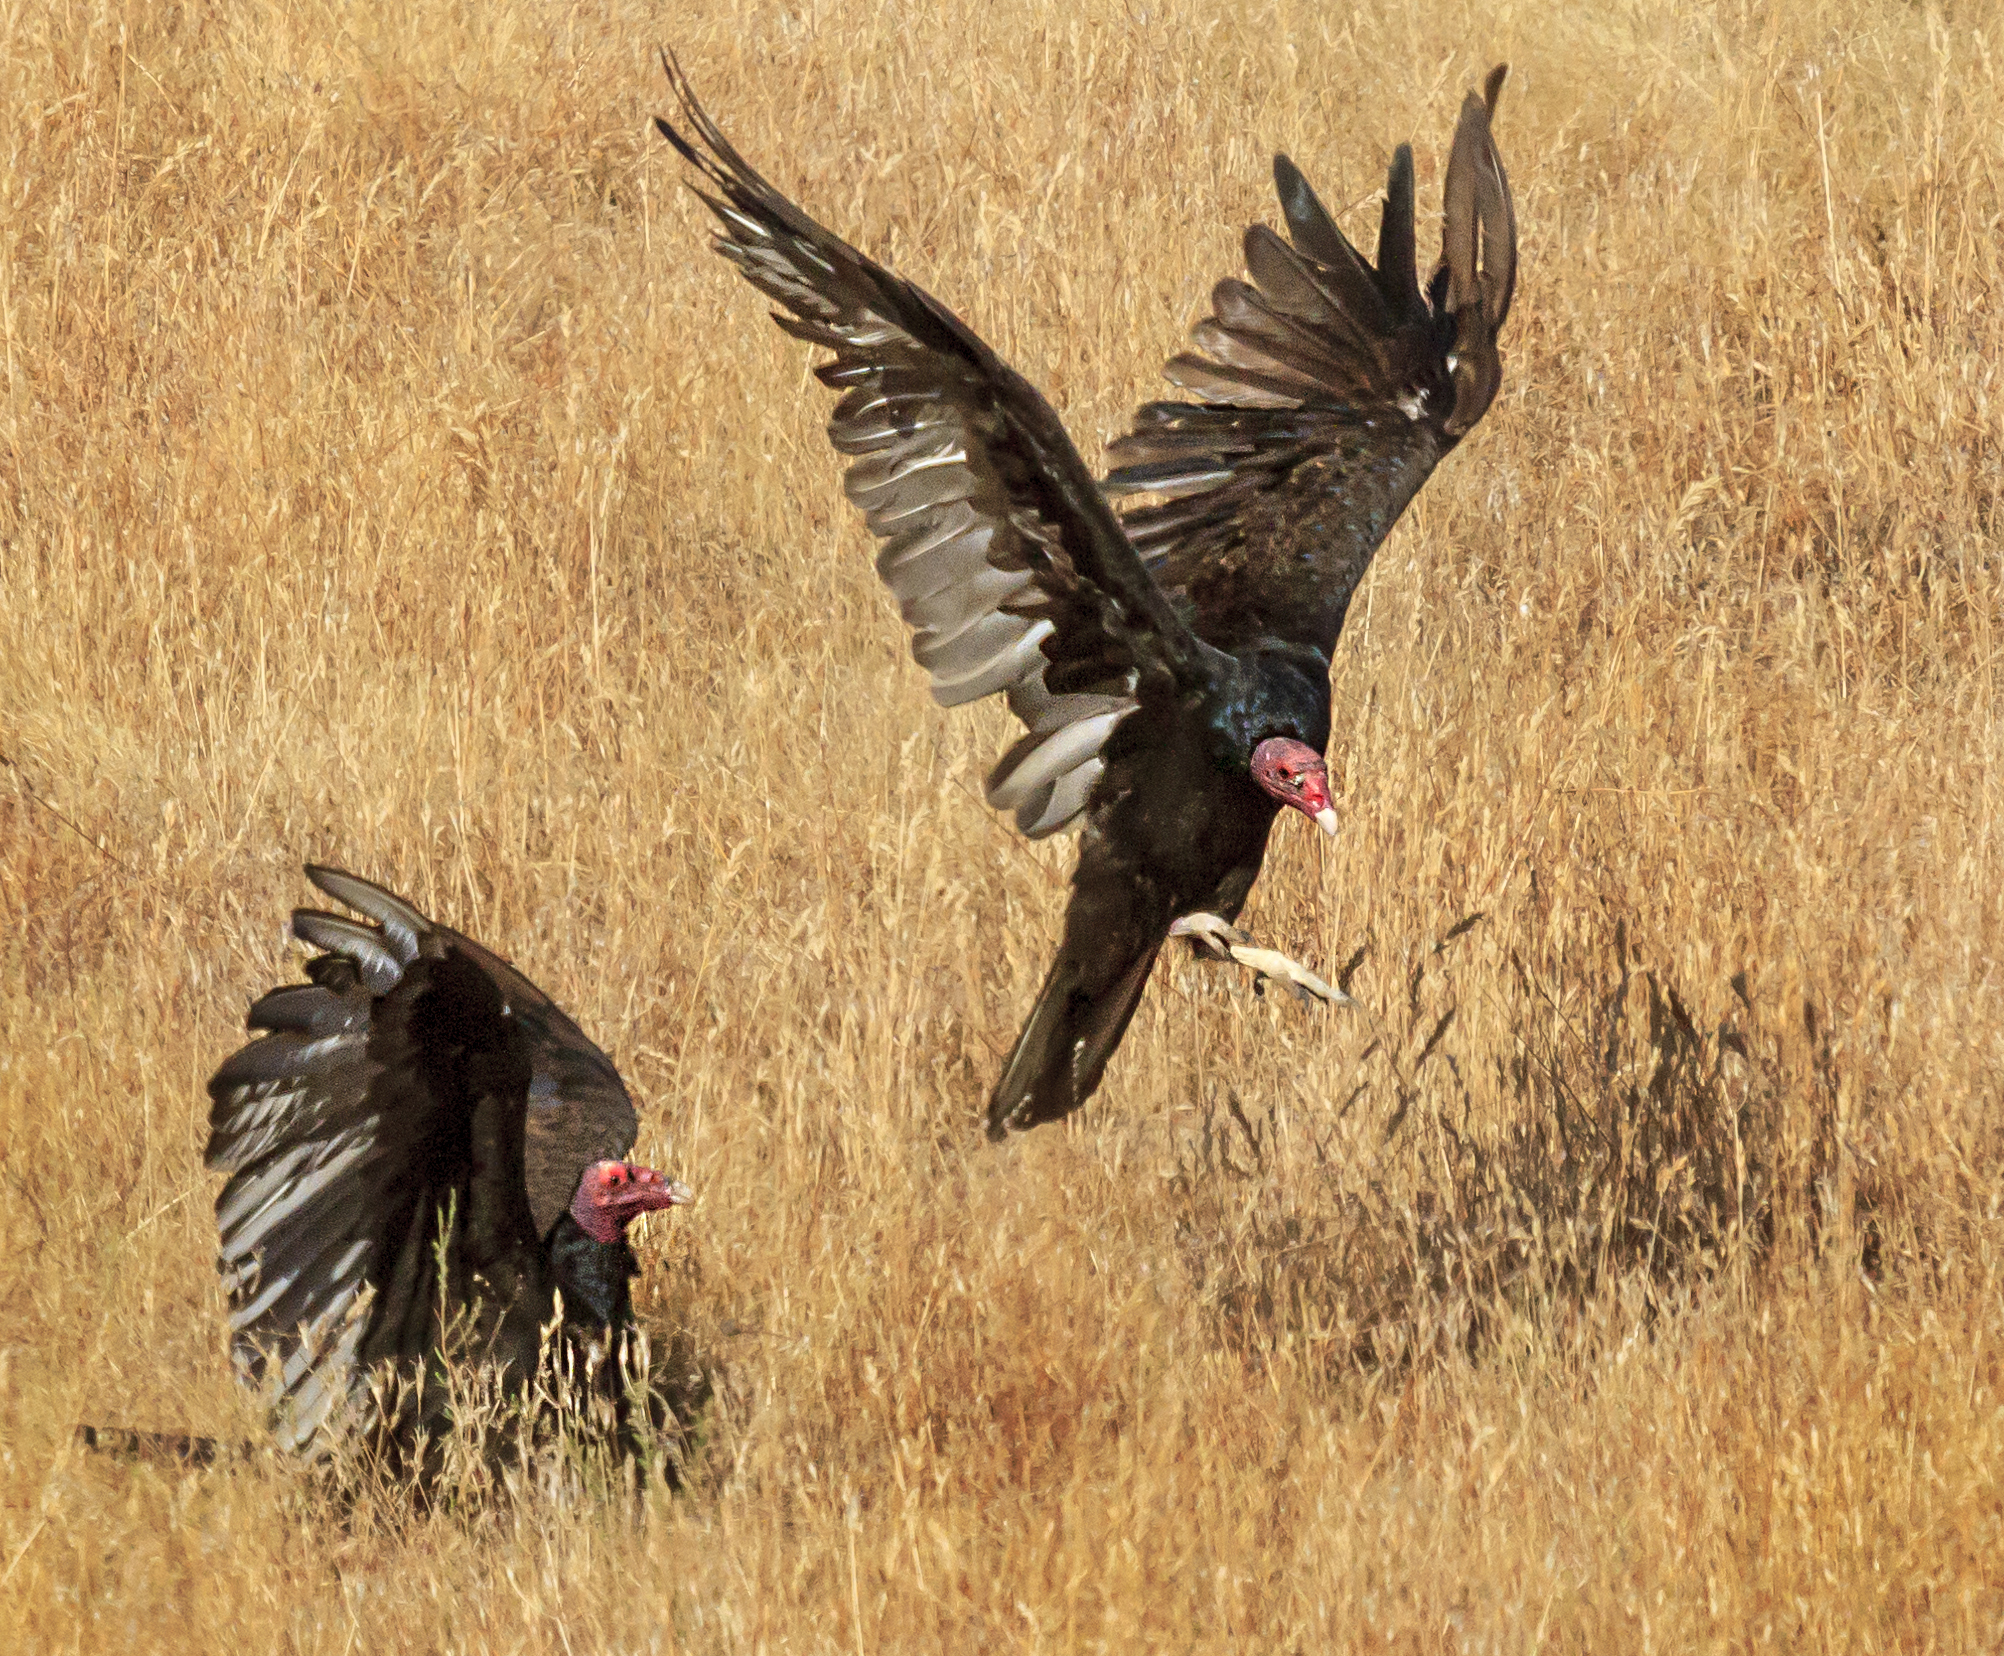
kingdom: Animalia
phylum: Chordata
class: Aves
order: Accipitriformes
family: Cathartidae
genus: Cathartes
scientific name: Cathartes aura
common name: Turkey vulture
